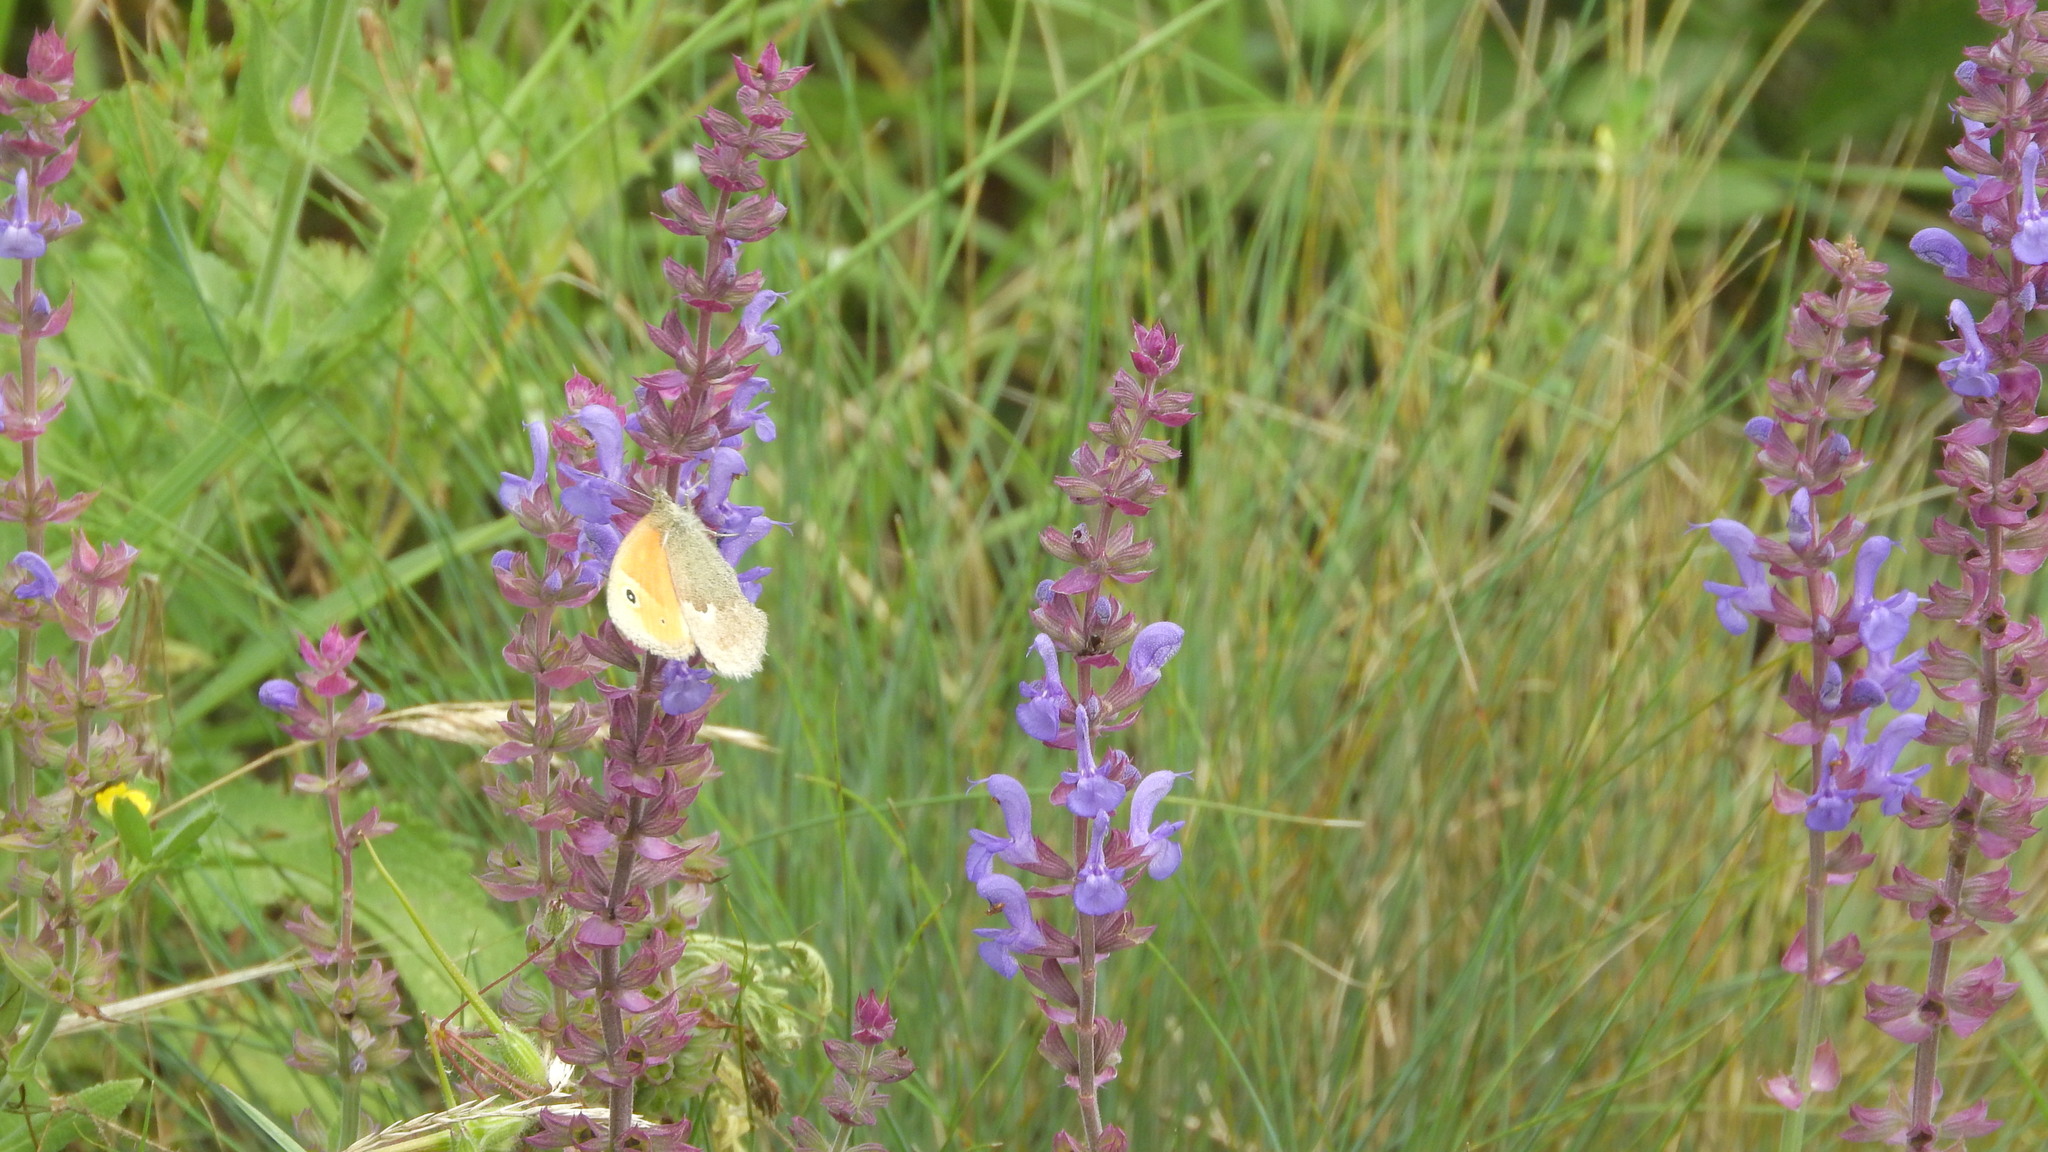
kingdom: Animalia
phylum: Arthropoda
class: Insecta
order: Lepidoptera
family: Nymphalidae
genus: Coenonympha
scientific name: Coenonympha pamphilus
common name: Small heath
